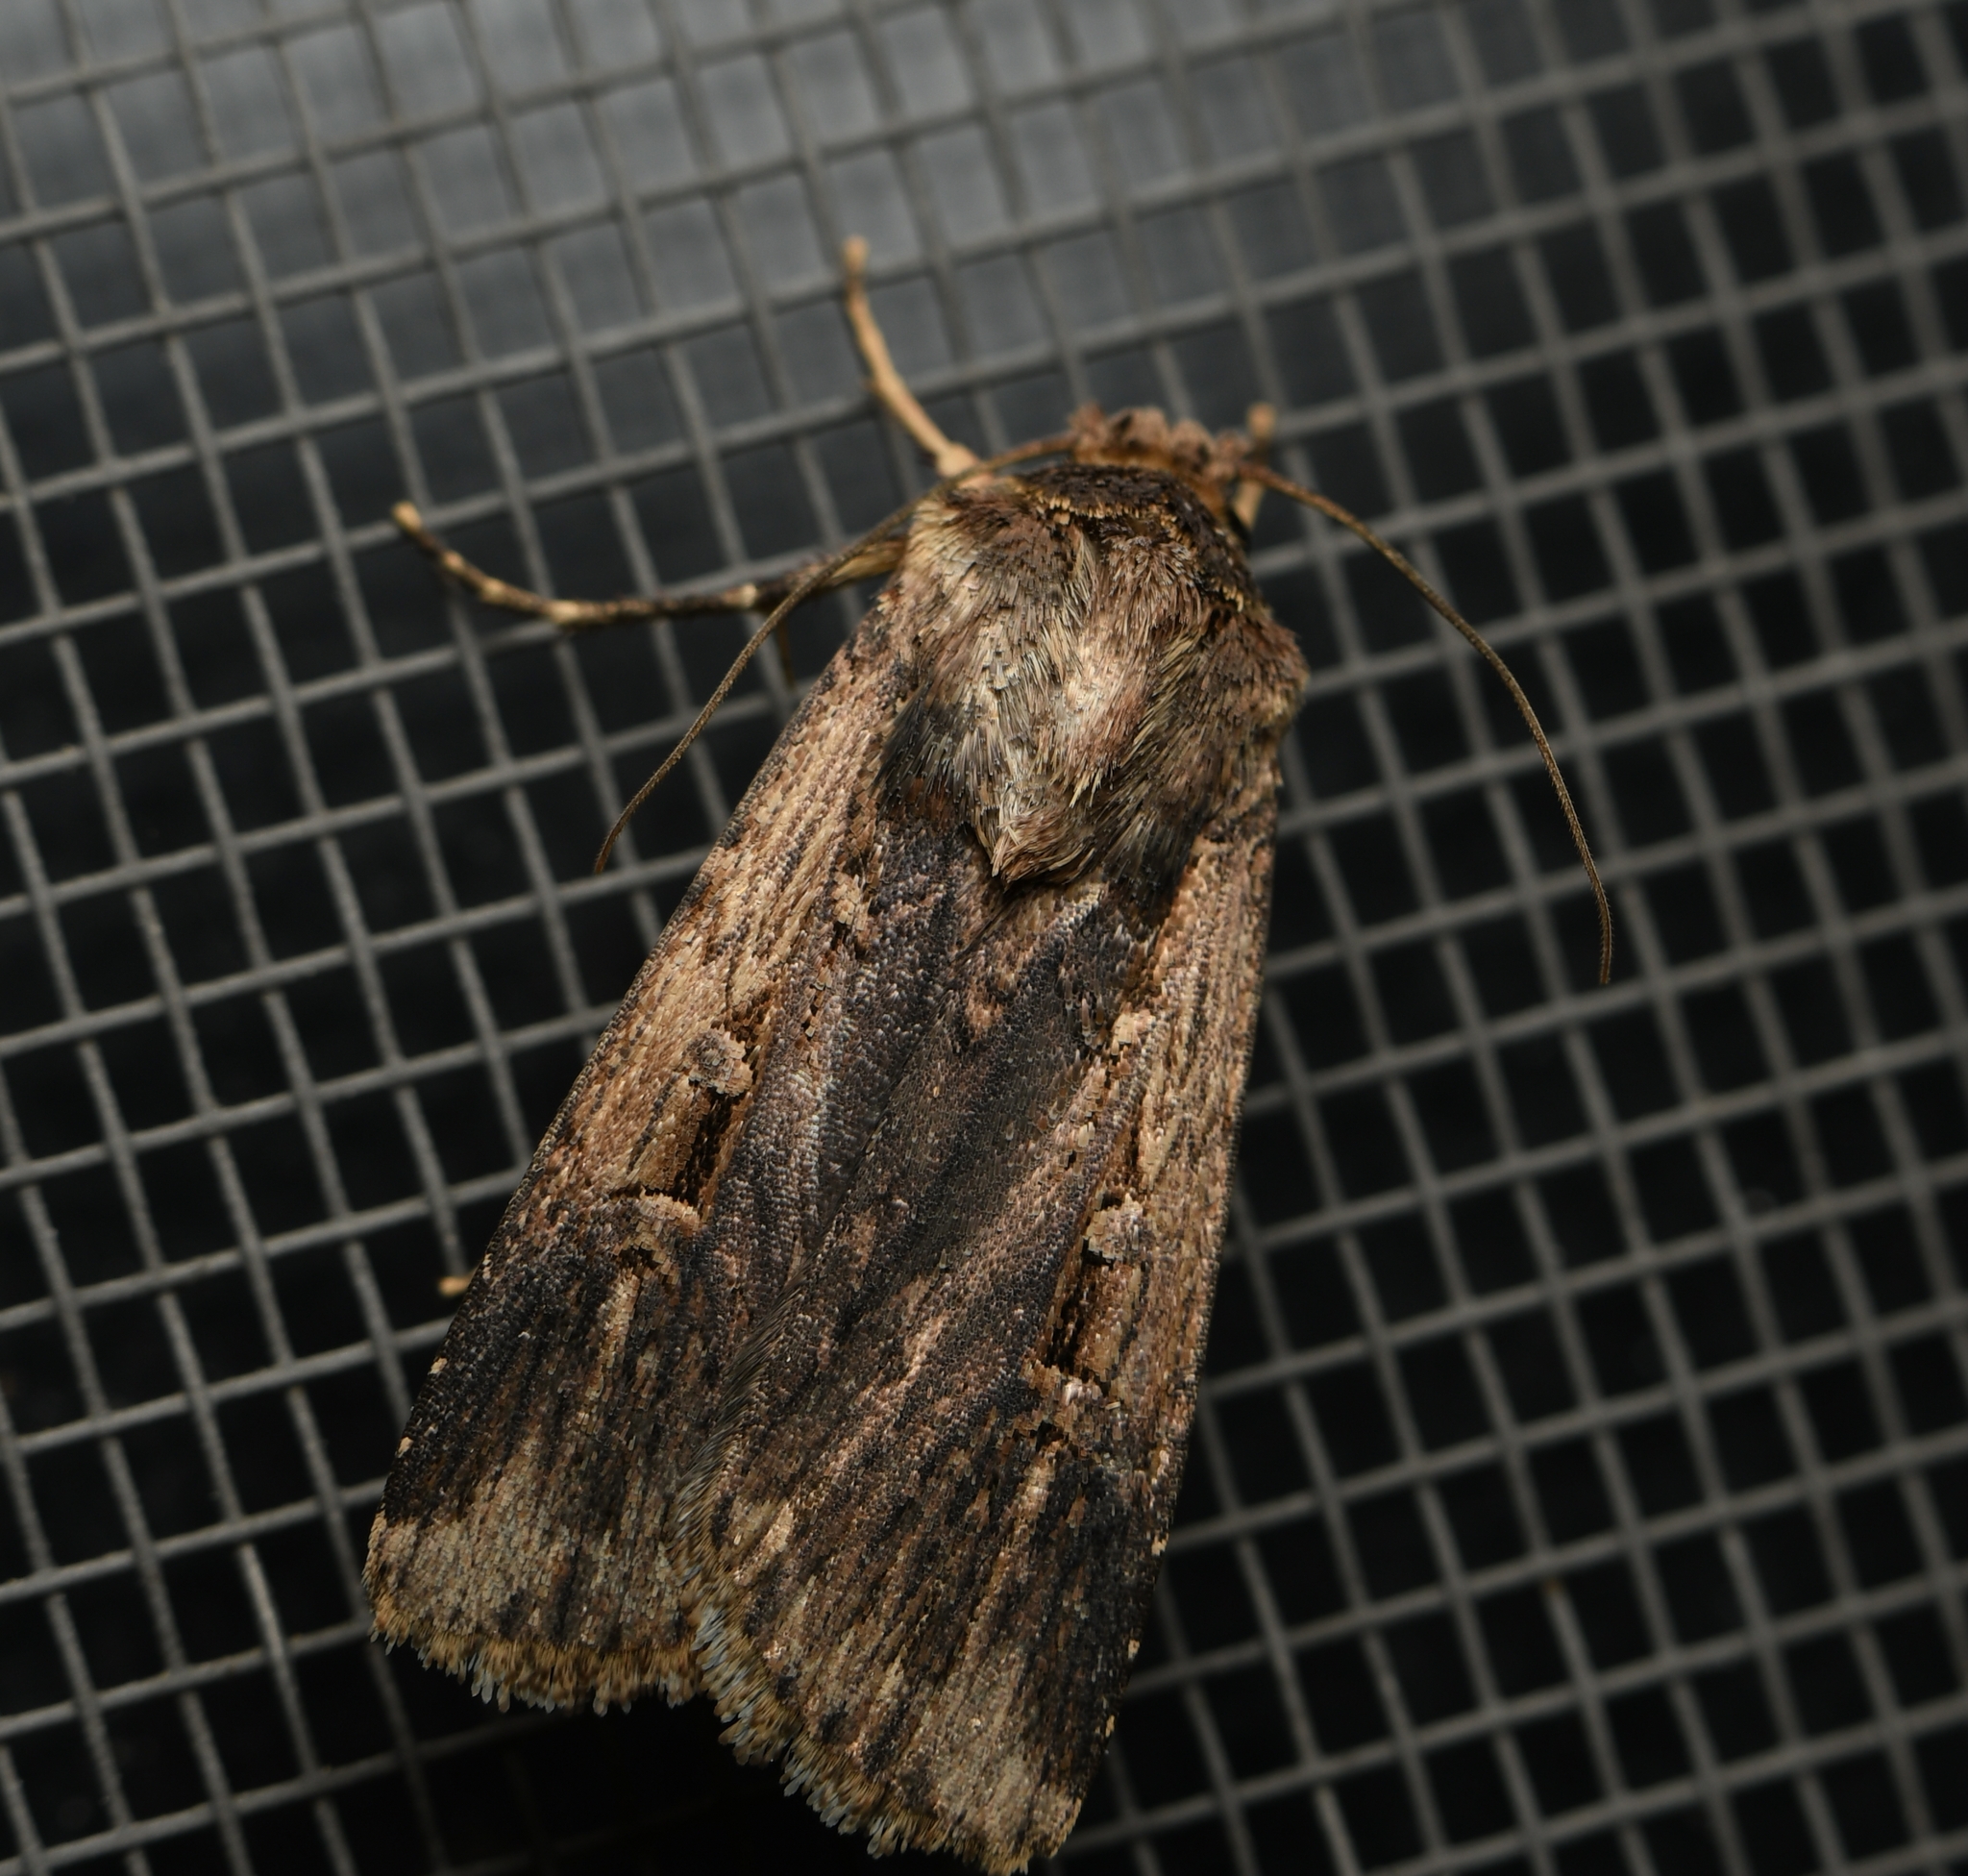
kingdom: Animalia
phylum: Arthropoda
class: Insecta
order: Lepidoptera
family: Noctuidae
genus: Feltia
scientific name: Feltia subterranea
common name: Granulate cutworm
